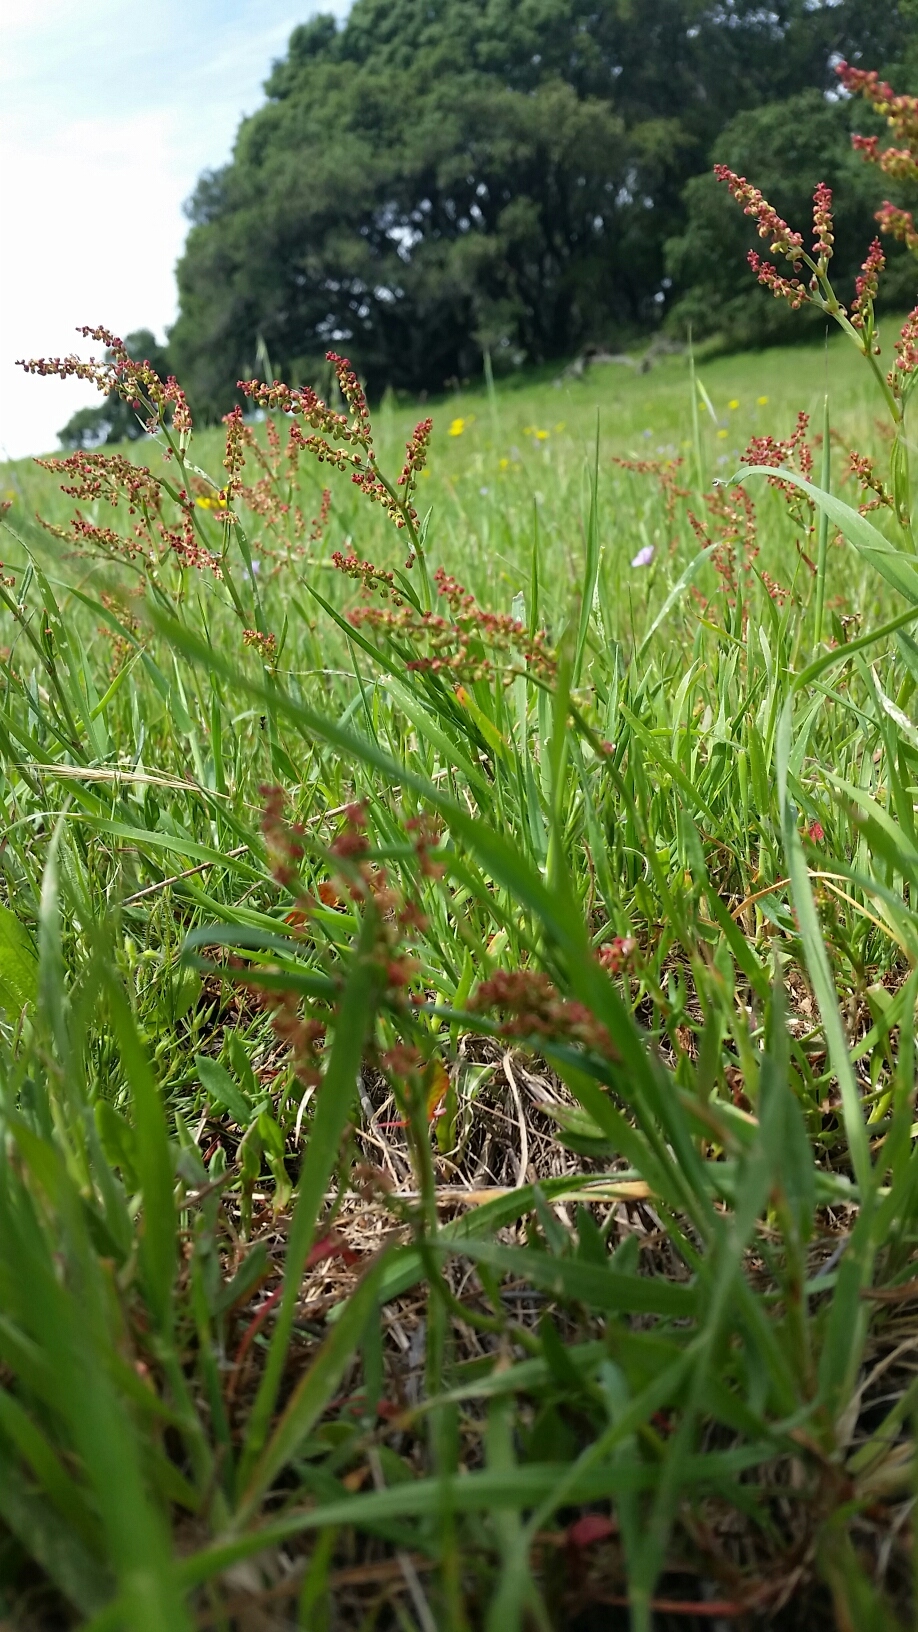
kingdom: Plantae
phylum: Tracheophyta
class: Magnoliopsida
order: Caryophyllales
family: Polygonaceae
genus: Rumex
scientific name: Rumex acetosella
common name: Common sheep sorrel
